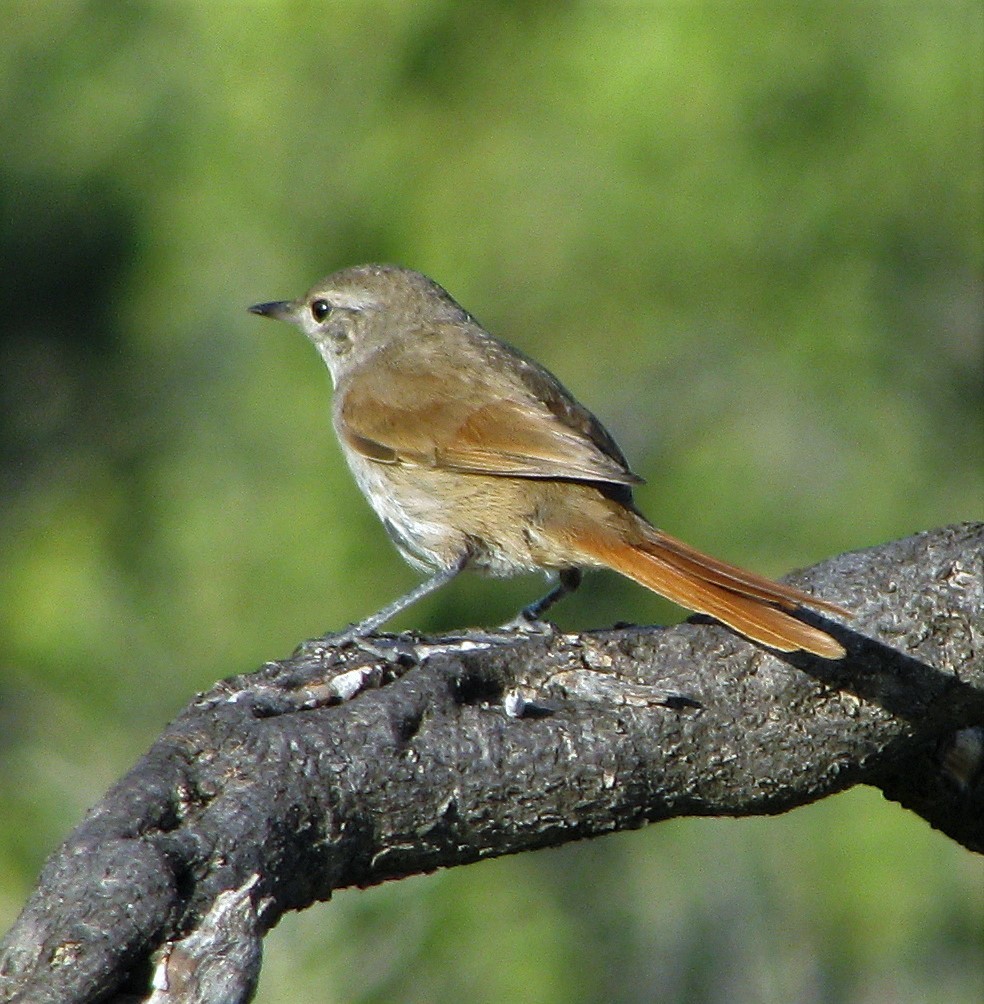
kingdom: Animalia
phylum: Chordata
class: Aves
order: Passeriformes
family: Furnariidae
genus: Asthenes
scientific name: Asthenes pyrrholeuca
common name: Sharp-billed canastero
